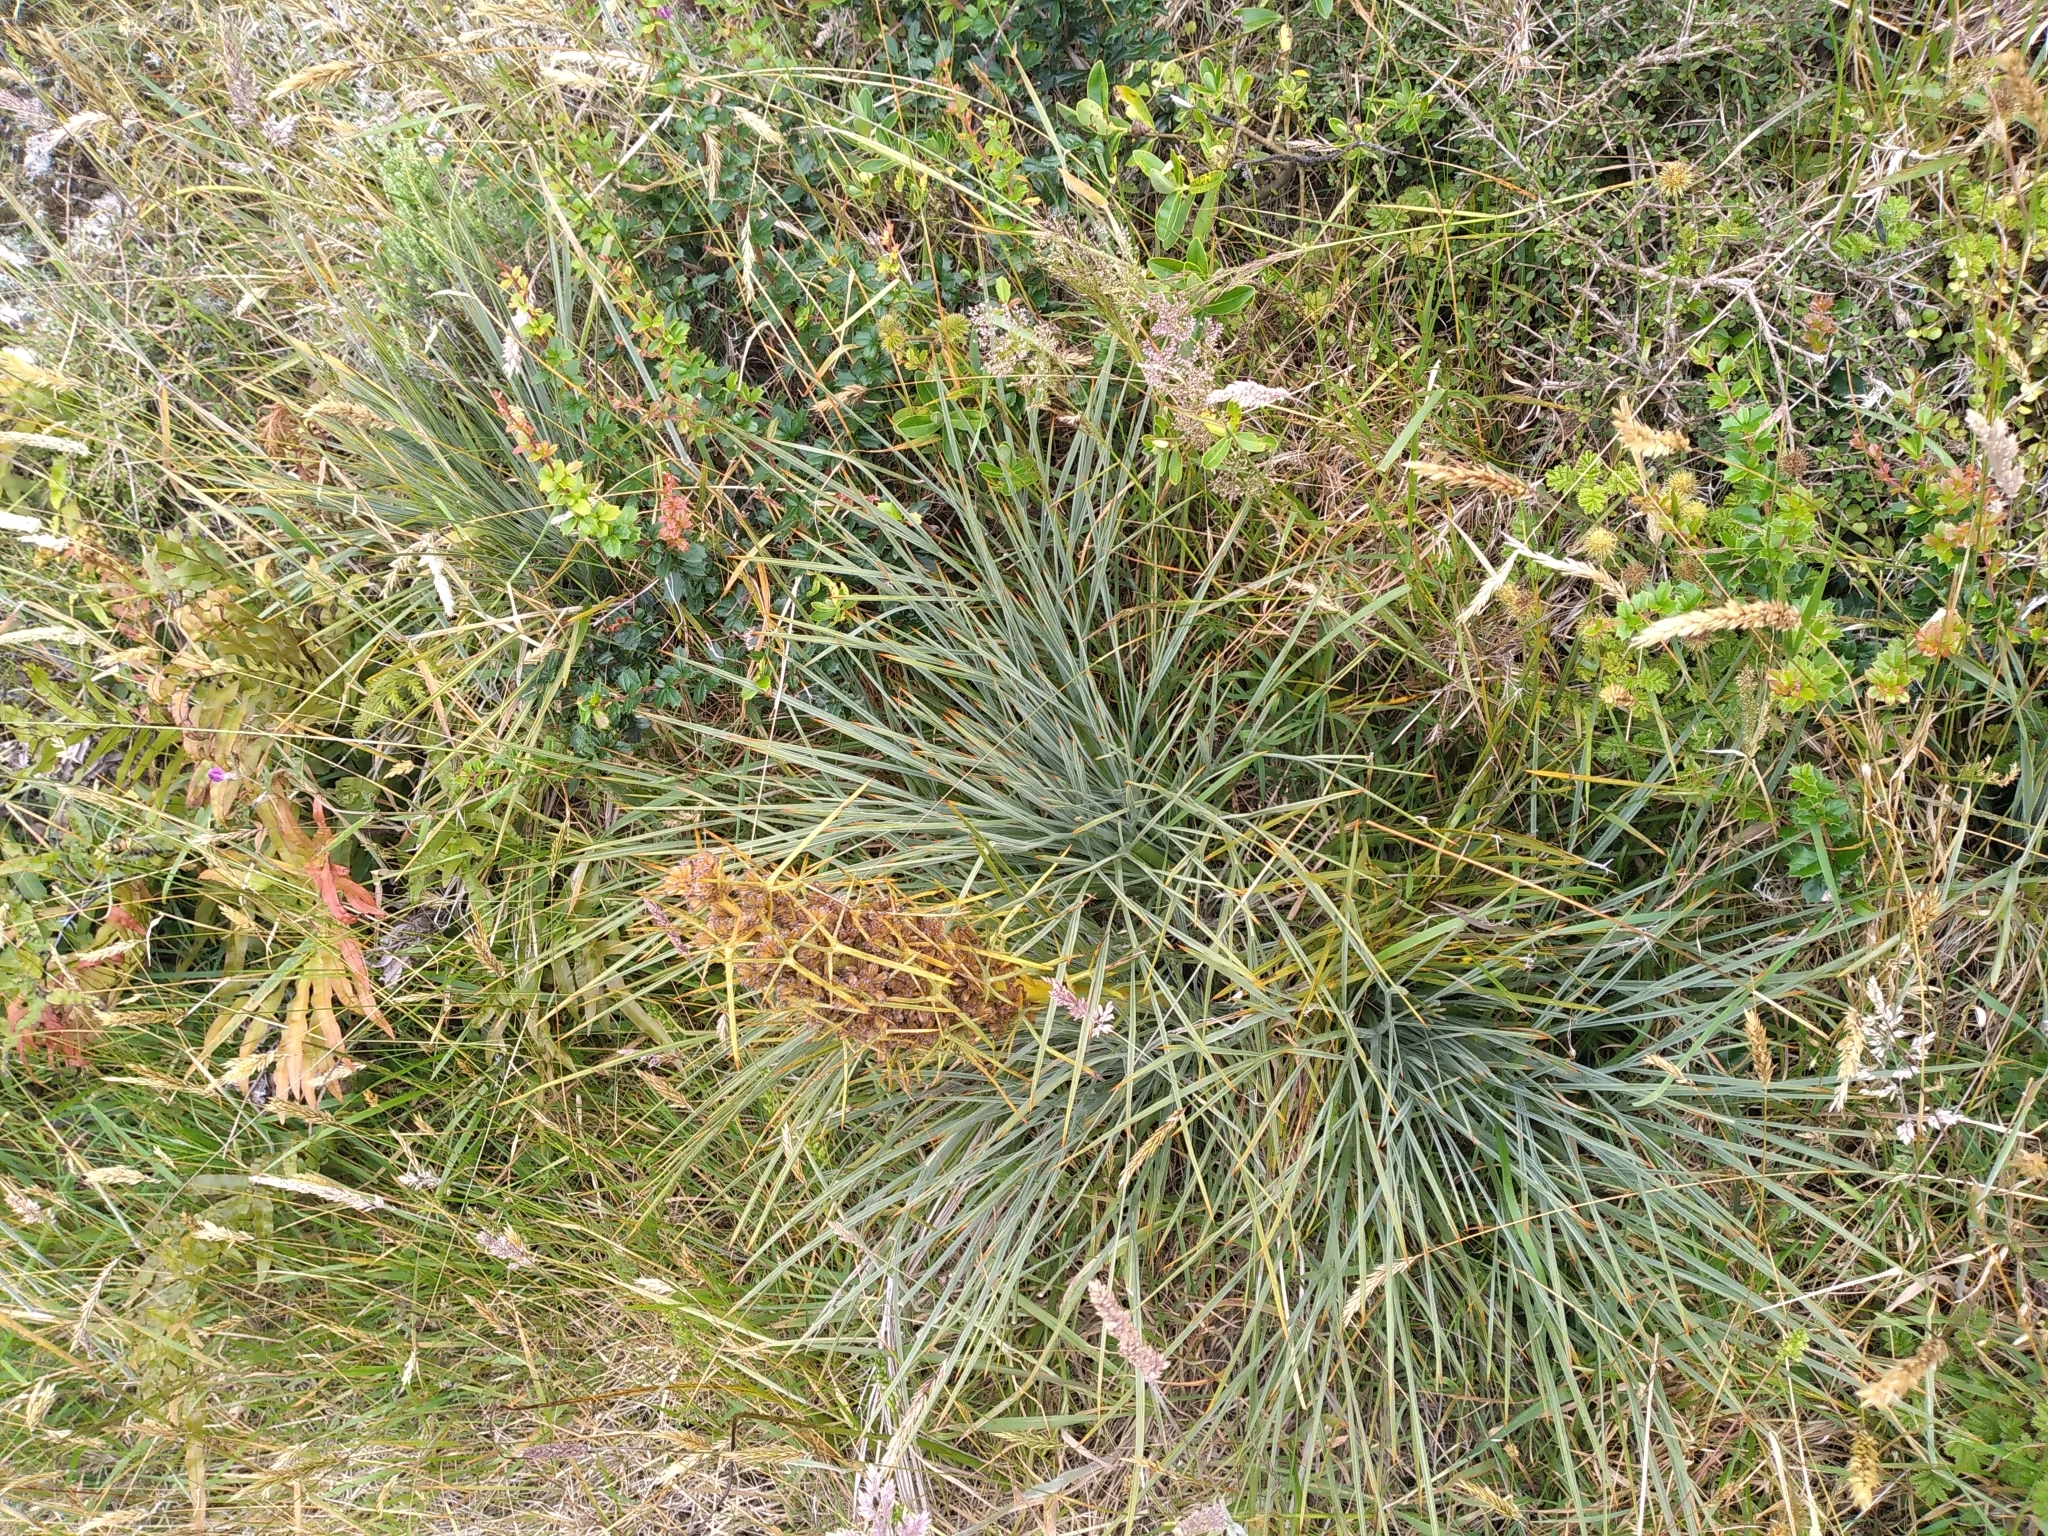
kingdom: Plantae
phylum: Tracheophyta
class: Magnoliopsida
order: Apiales
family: Apiaceae
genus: Aciphylla
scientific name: Aciphylla squarrosa
